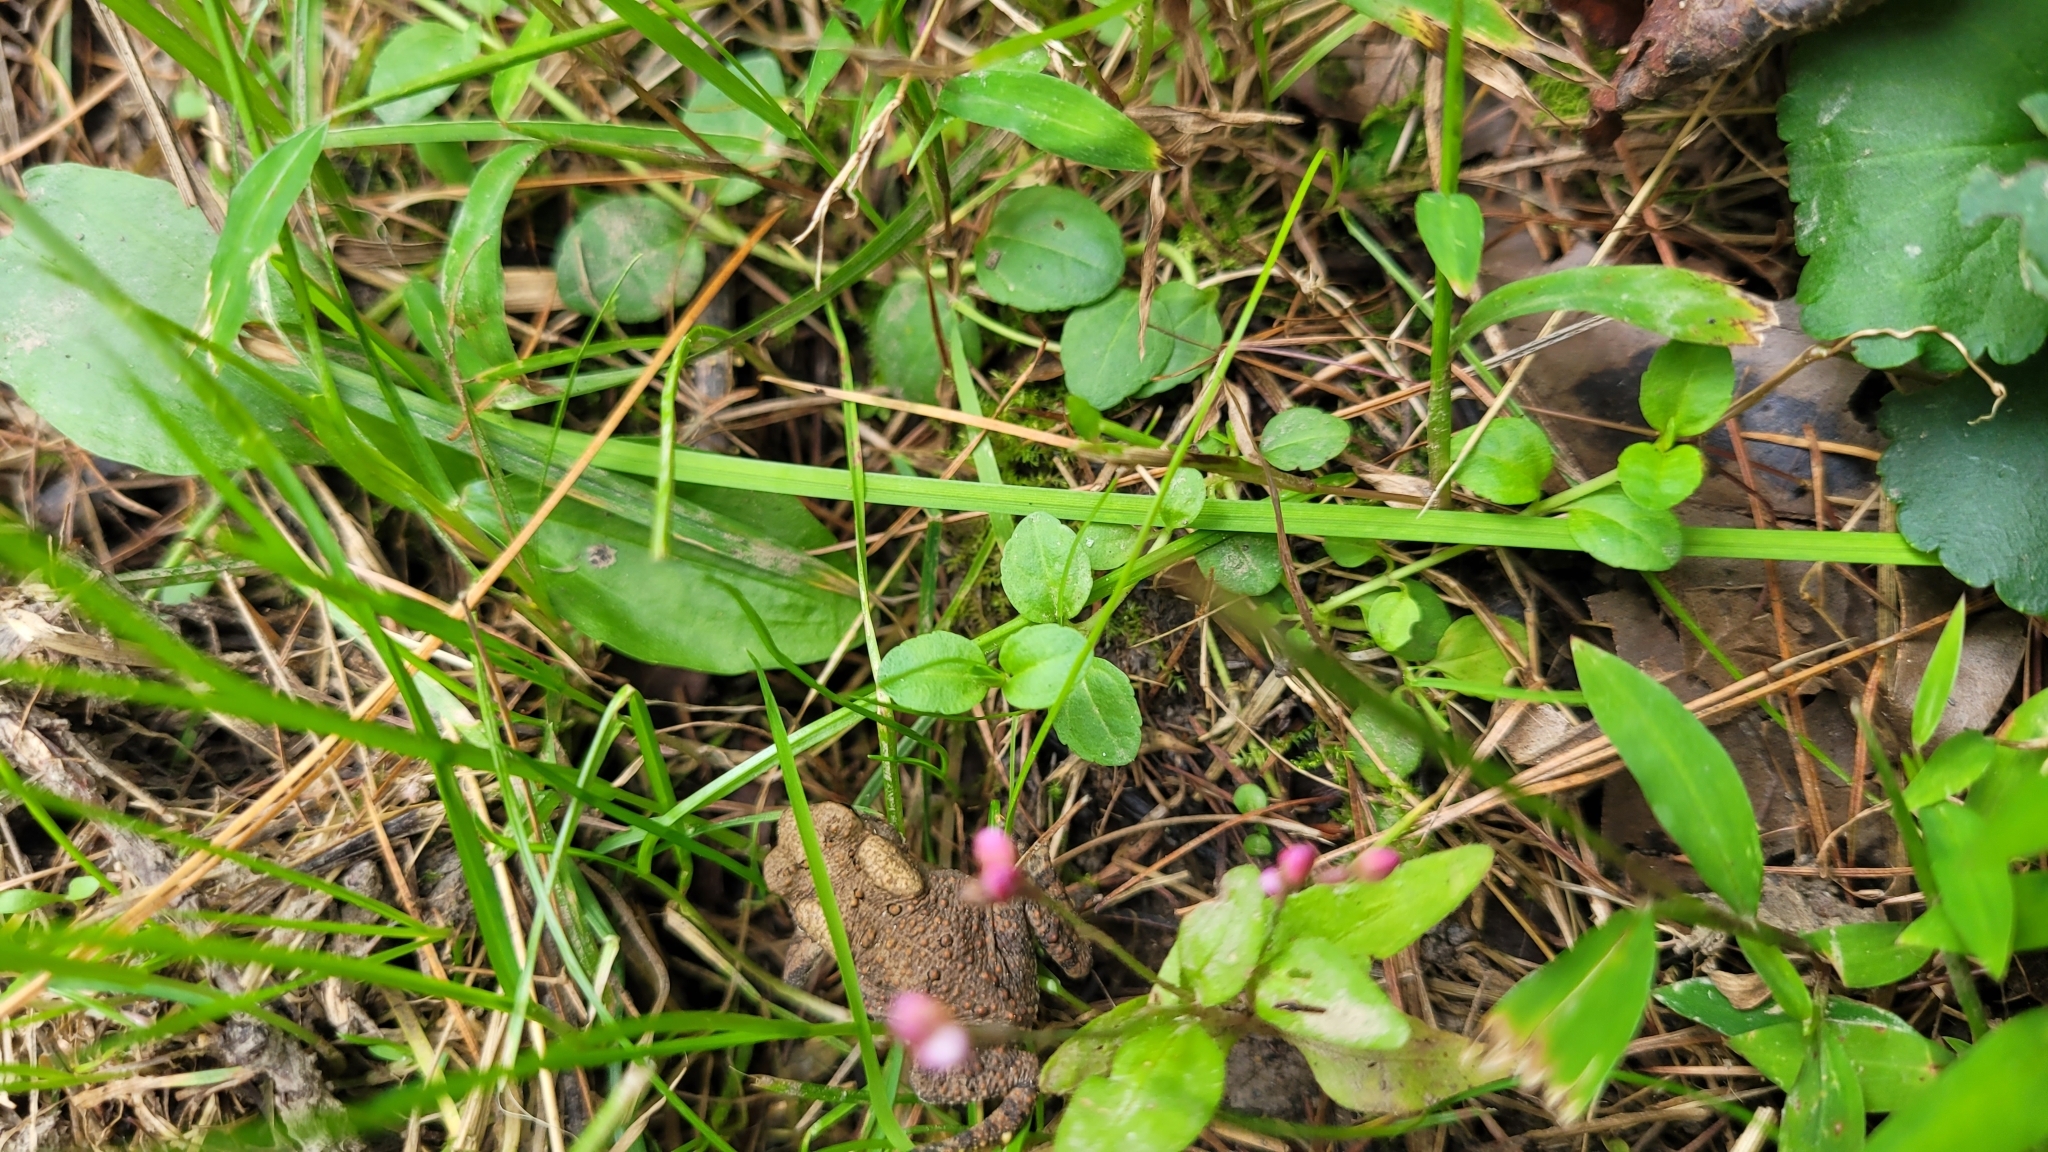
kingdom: Animalia
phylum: Chordata
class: Amphibia
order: Anura
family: Bufonidae
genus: Anaxyrus
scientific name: Anaxyrus americanus
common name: American toad
